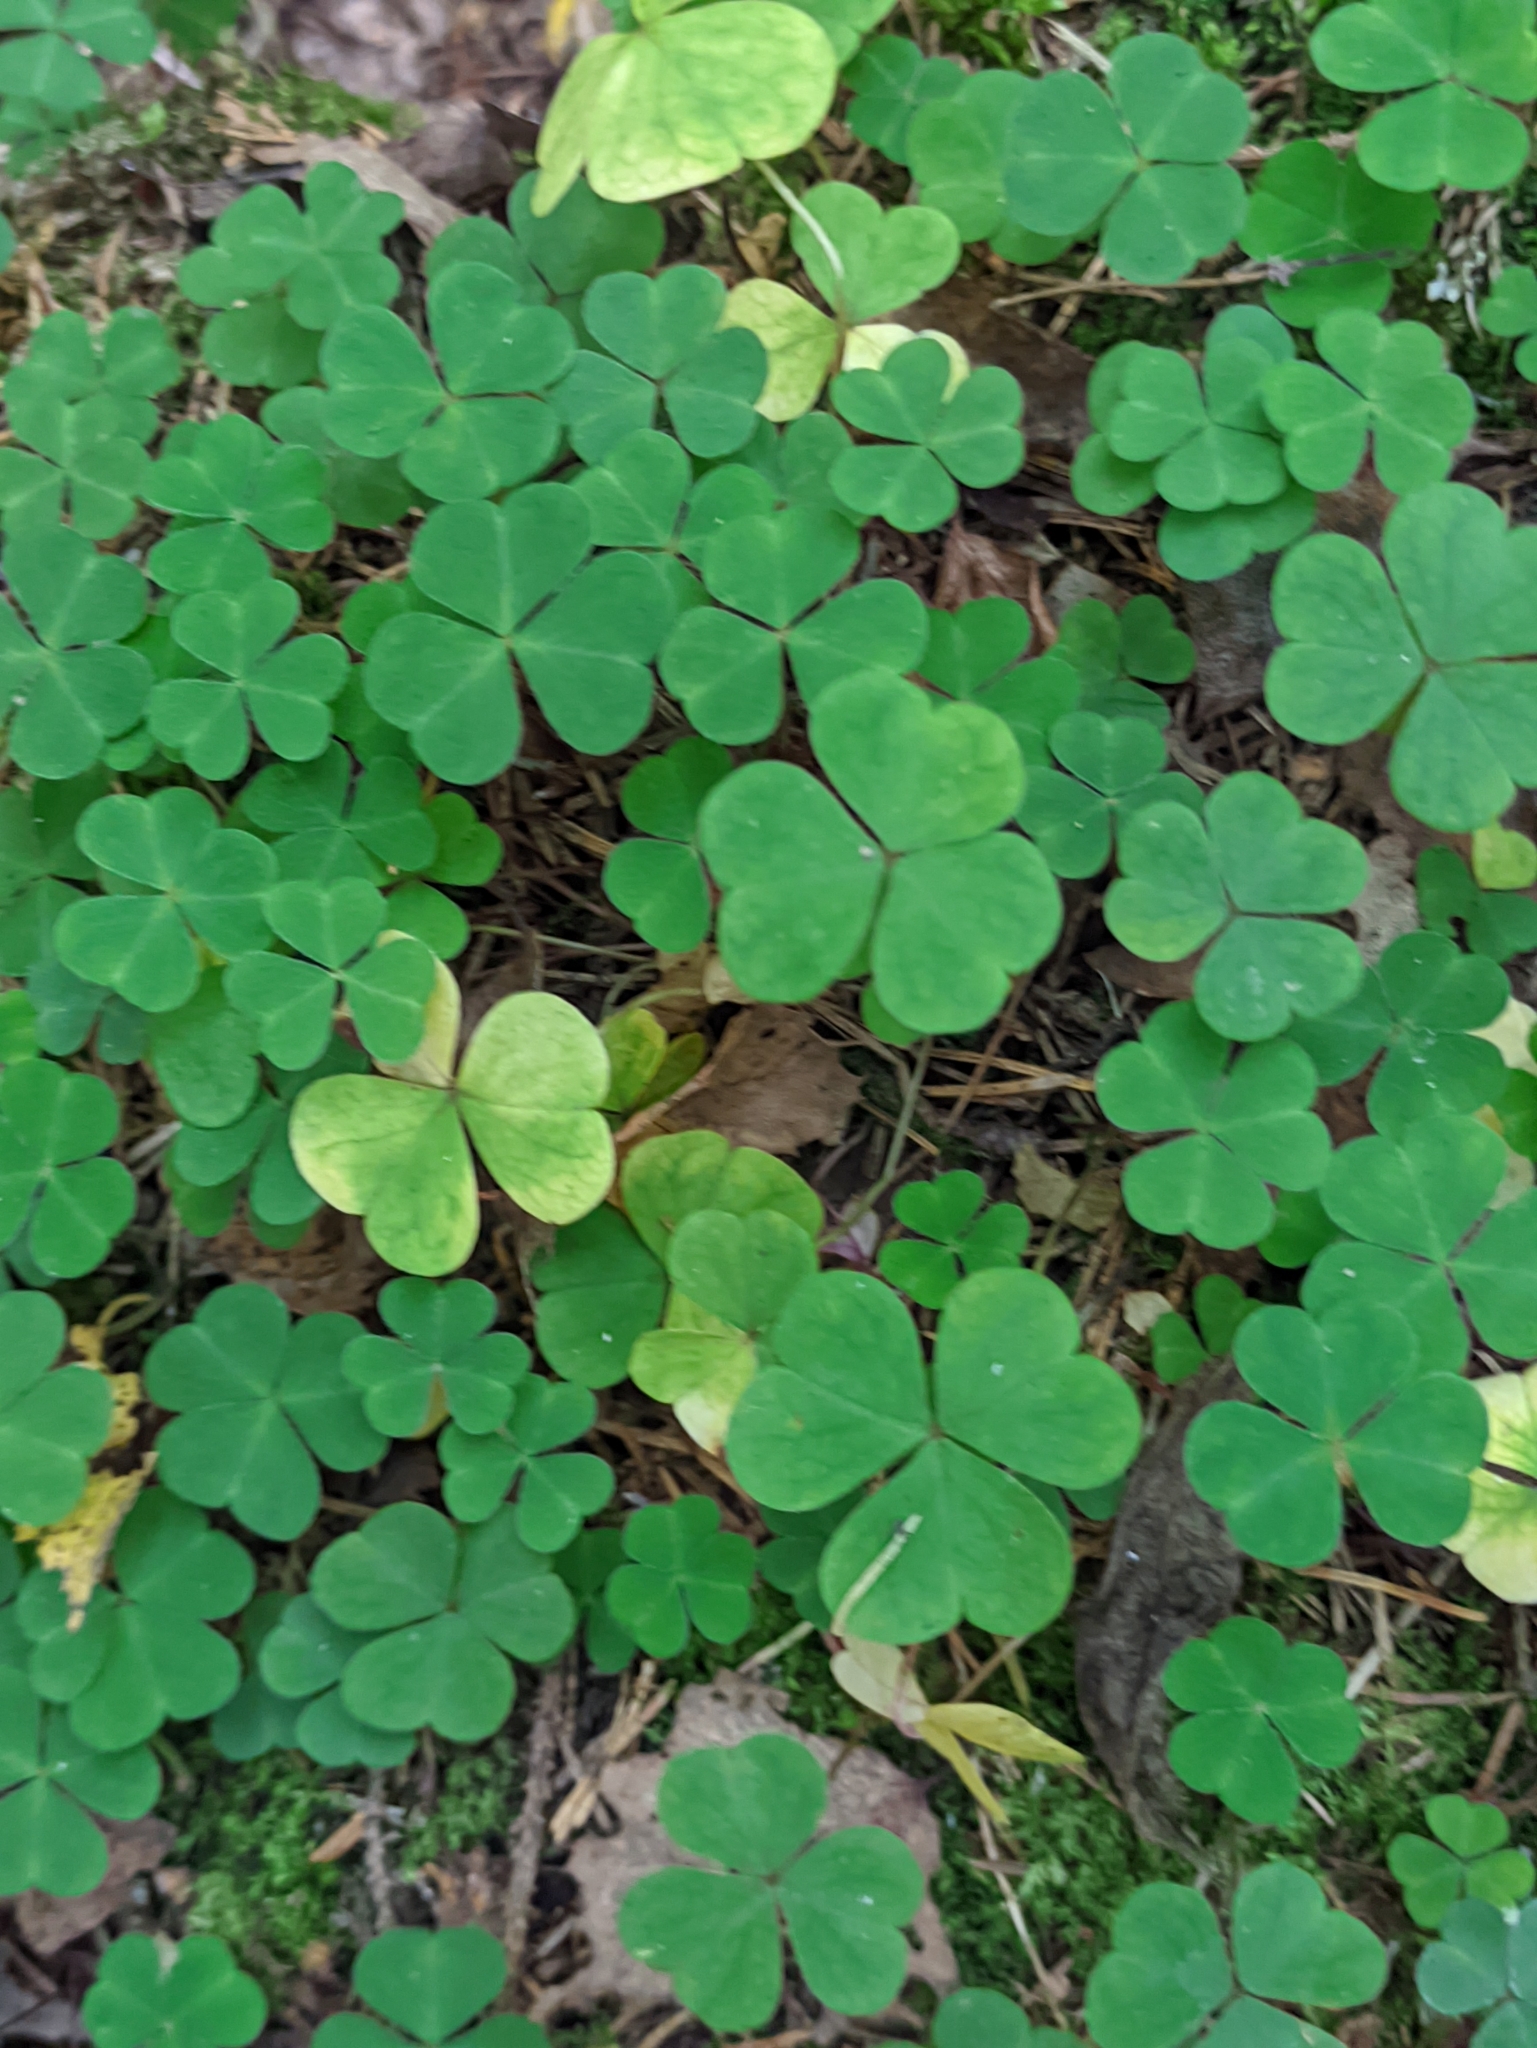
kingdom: Plantae
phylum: Tracheophyta
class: Magnoliopsida
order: Oxalidales
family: Oxalidaceae
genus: Oxalis
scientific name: Oxalis acetosella
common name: Wood-sorrel
